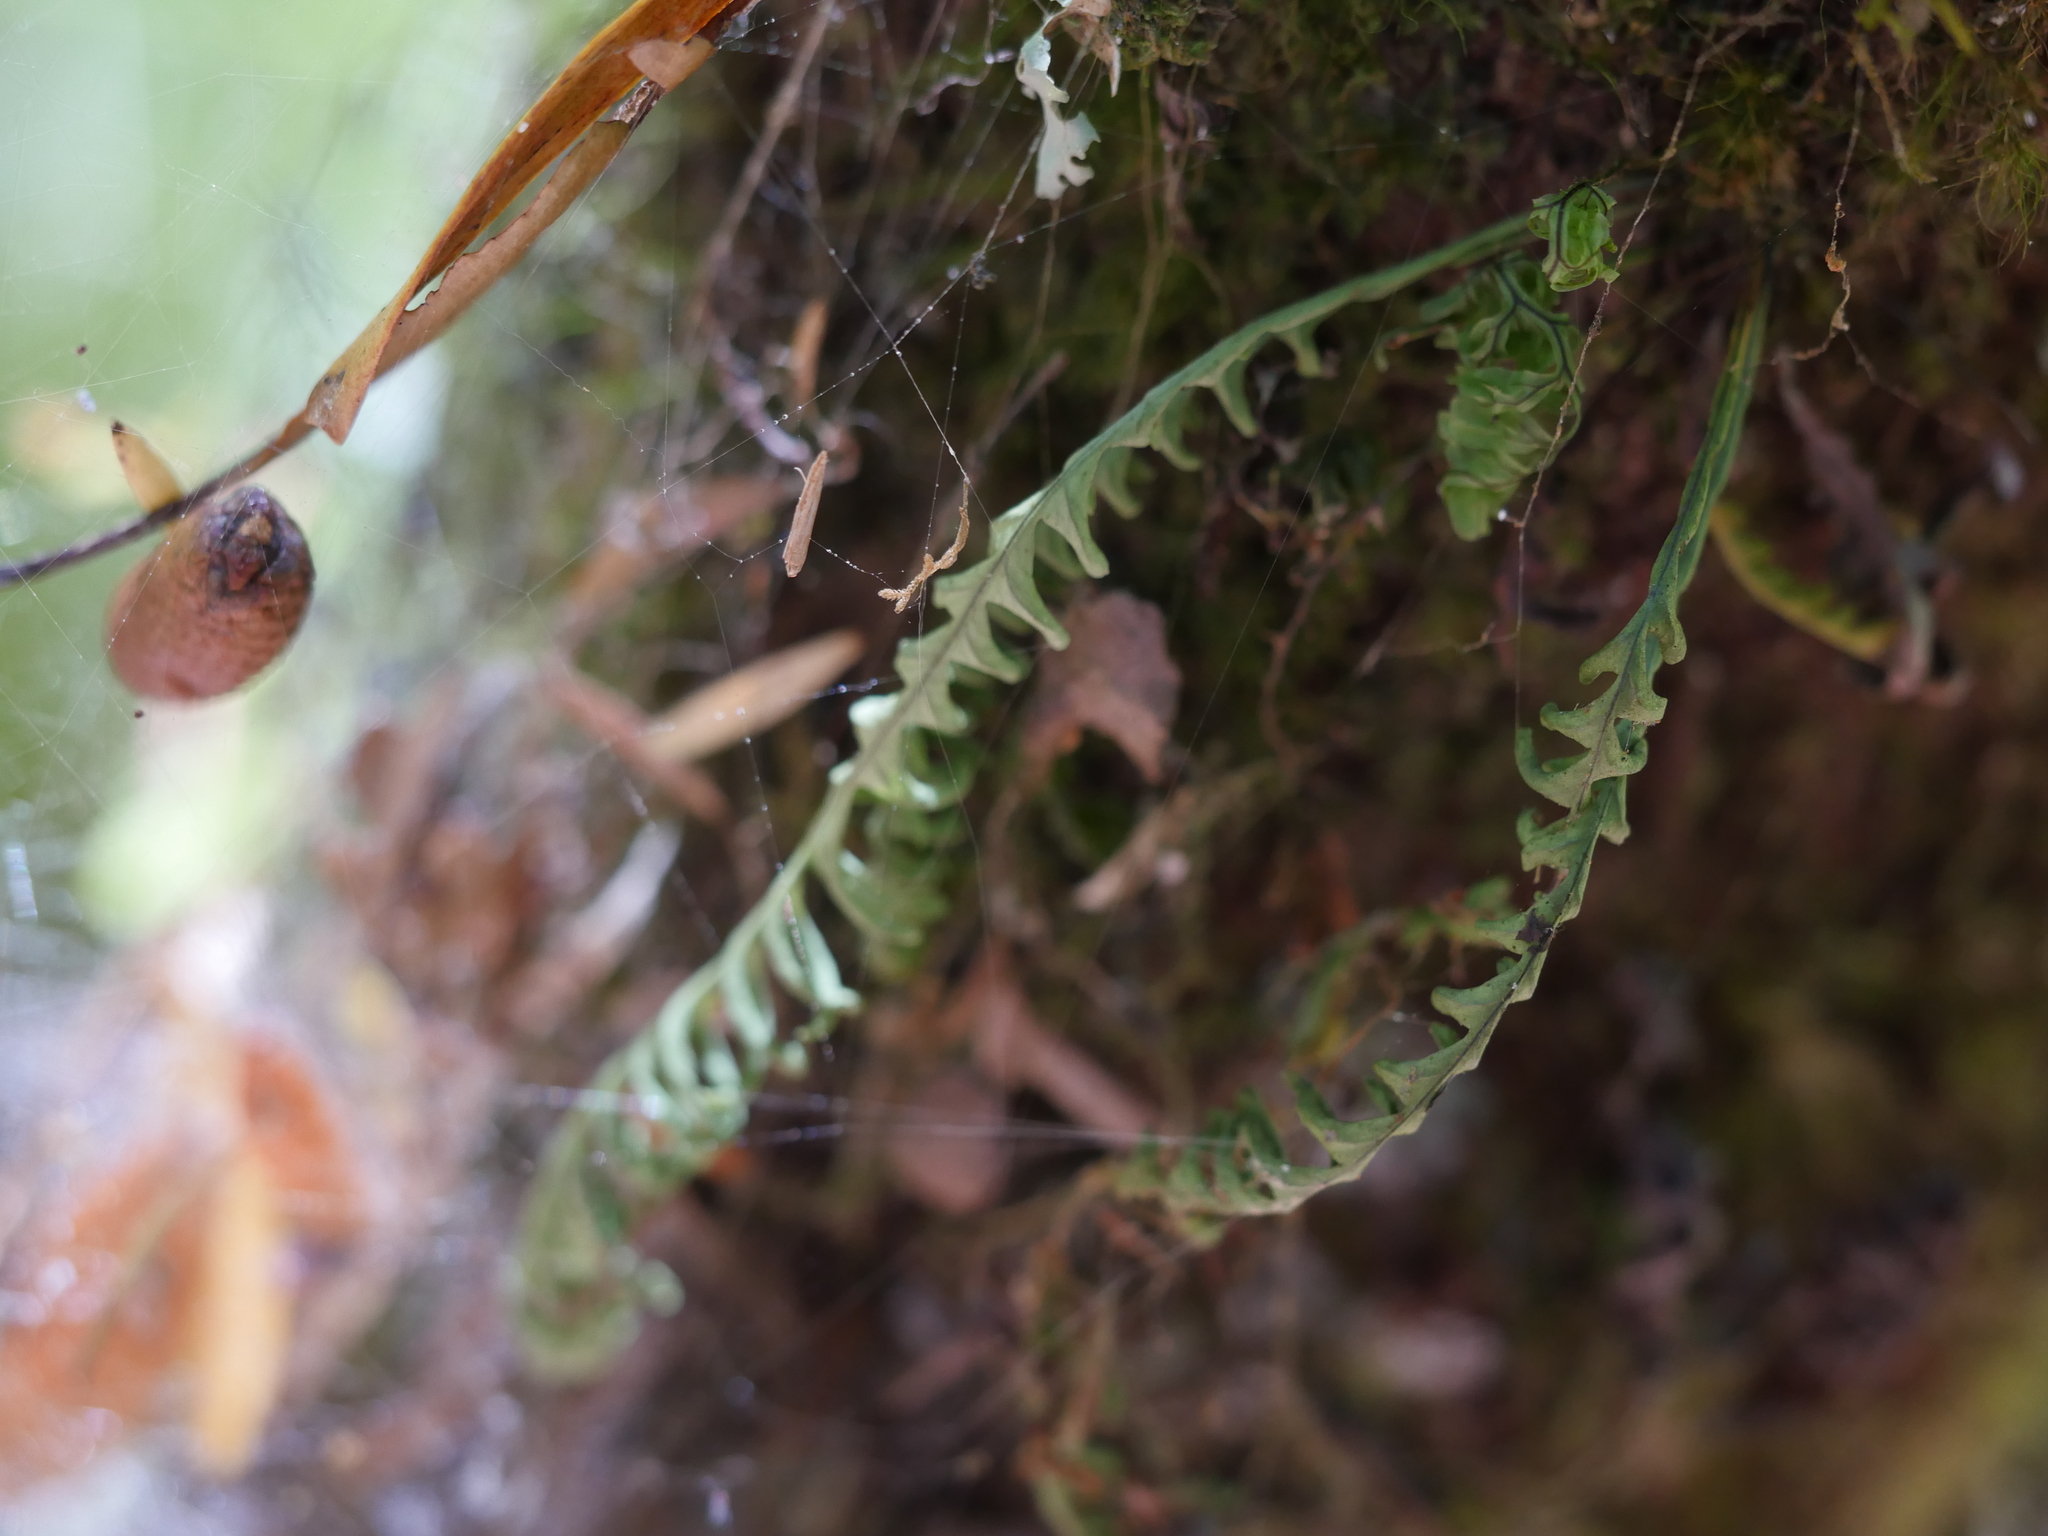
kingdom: Plantae
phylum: Tracheophyta
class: Polypodiopsida
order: Polypodiales
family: Polypodiaceae
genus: Notogrammitis
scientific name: Notogrammitis heterophylla
